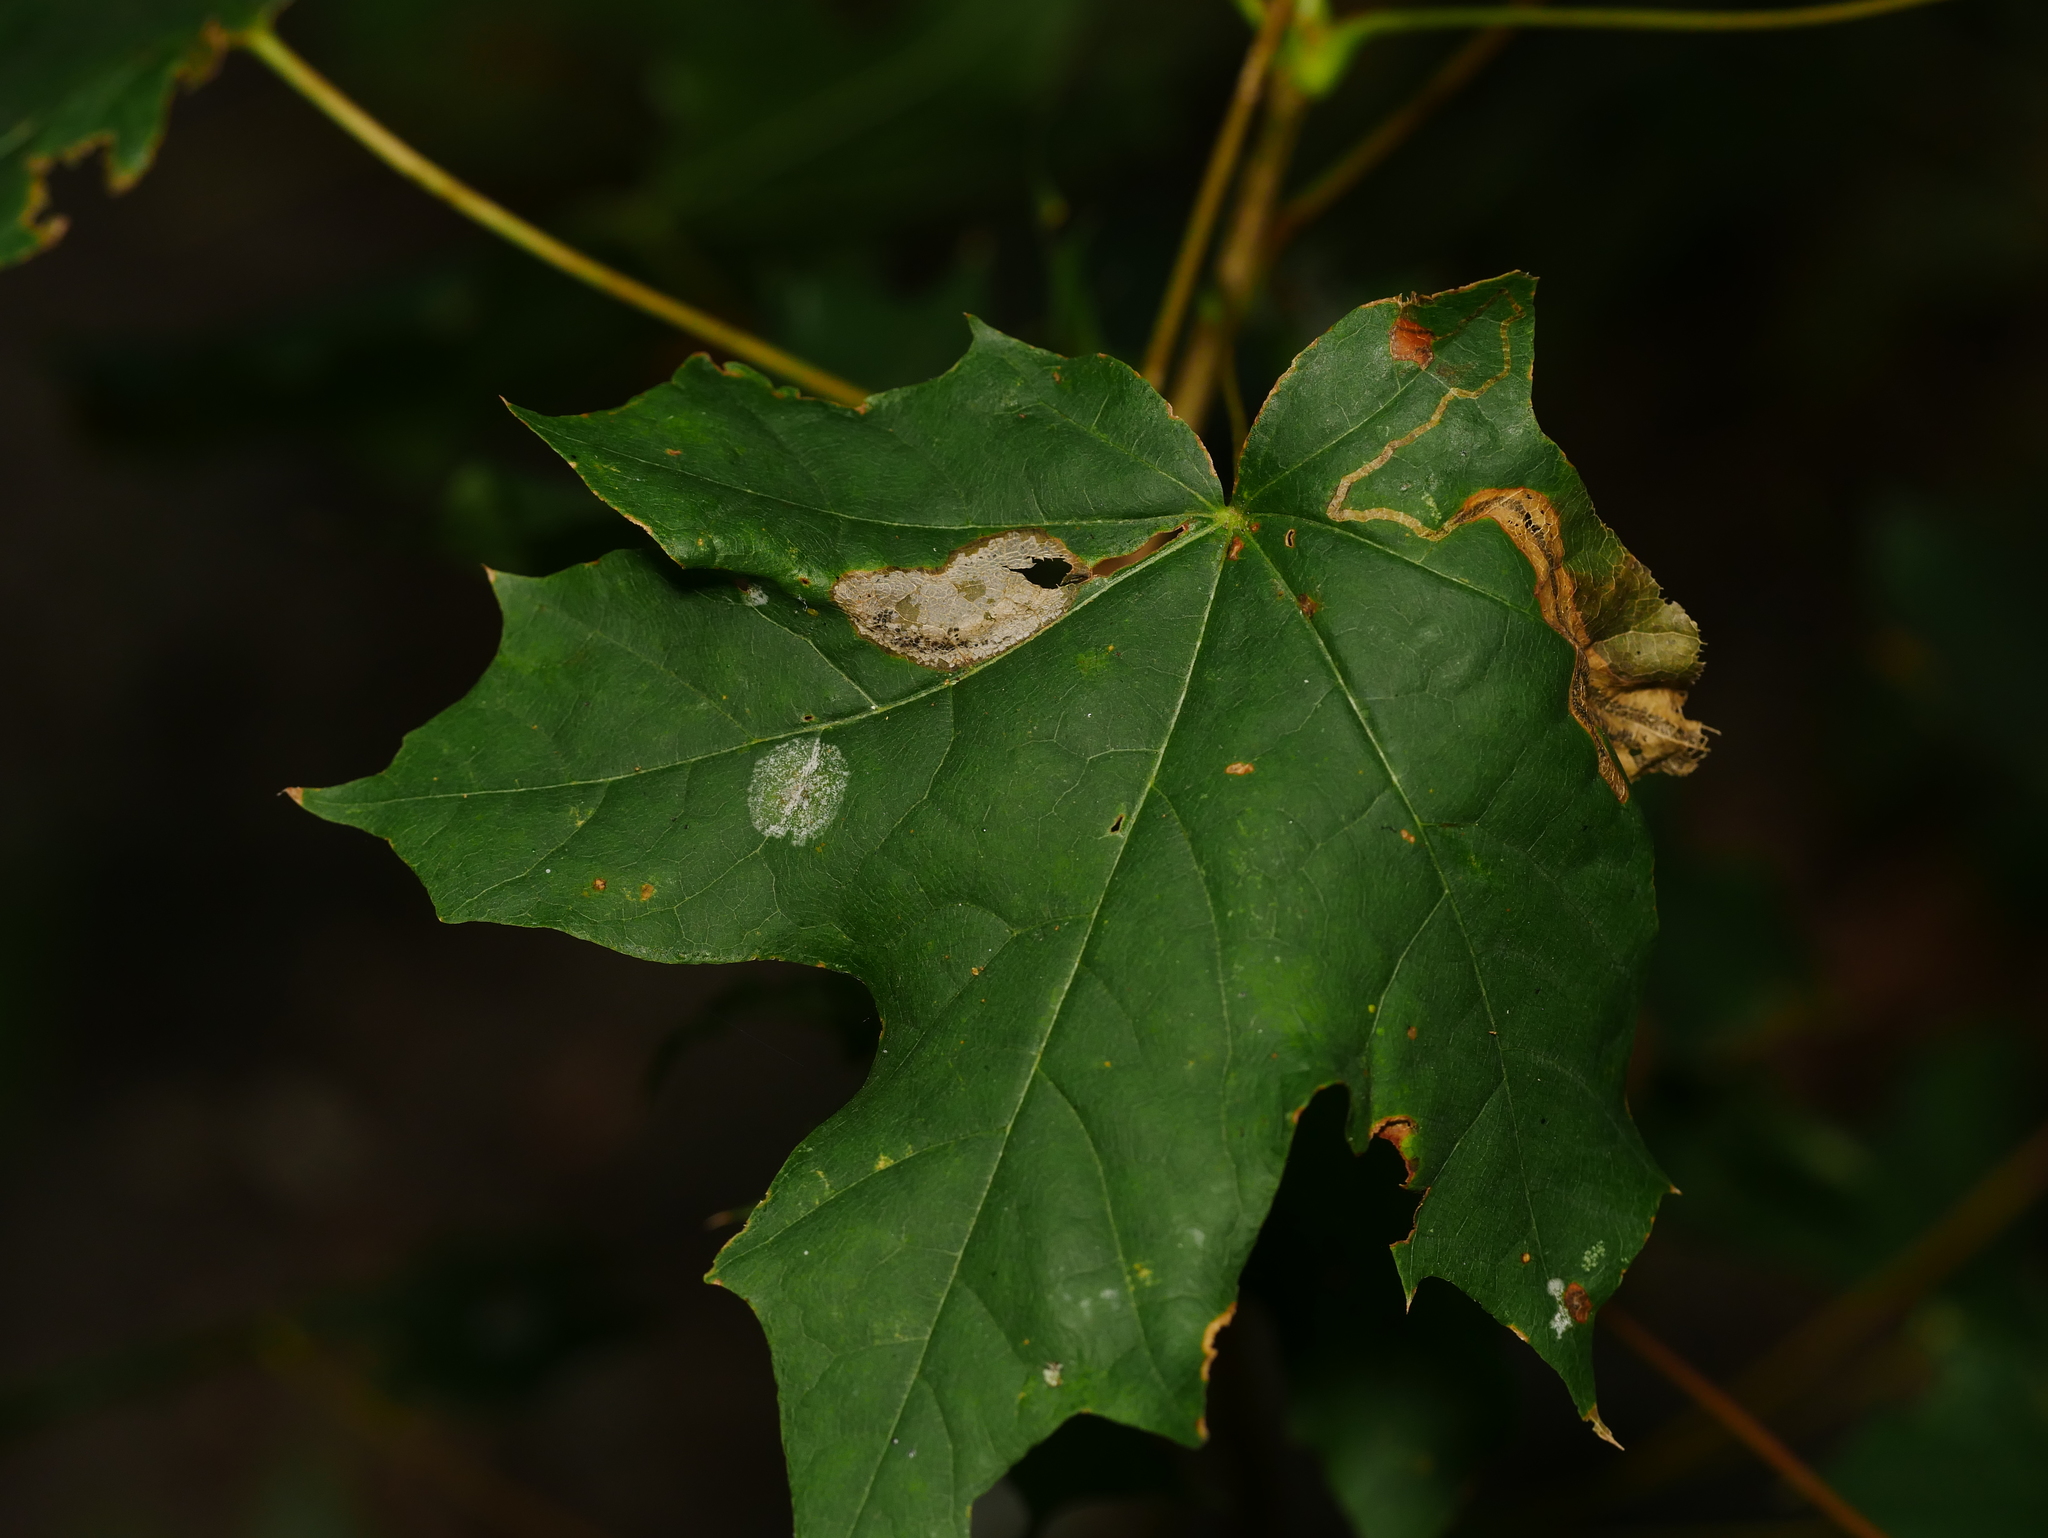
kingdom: Plantae
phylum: Tracheophyta
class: Magnoliopsida
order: Sapindales
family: Sapindaceae
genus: Acer
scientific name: Acer platanoides
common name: Norway maple
